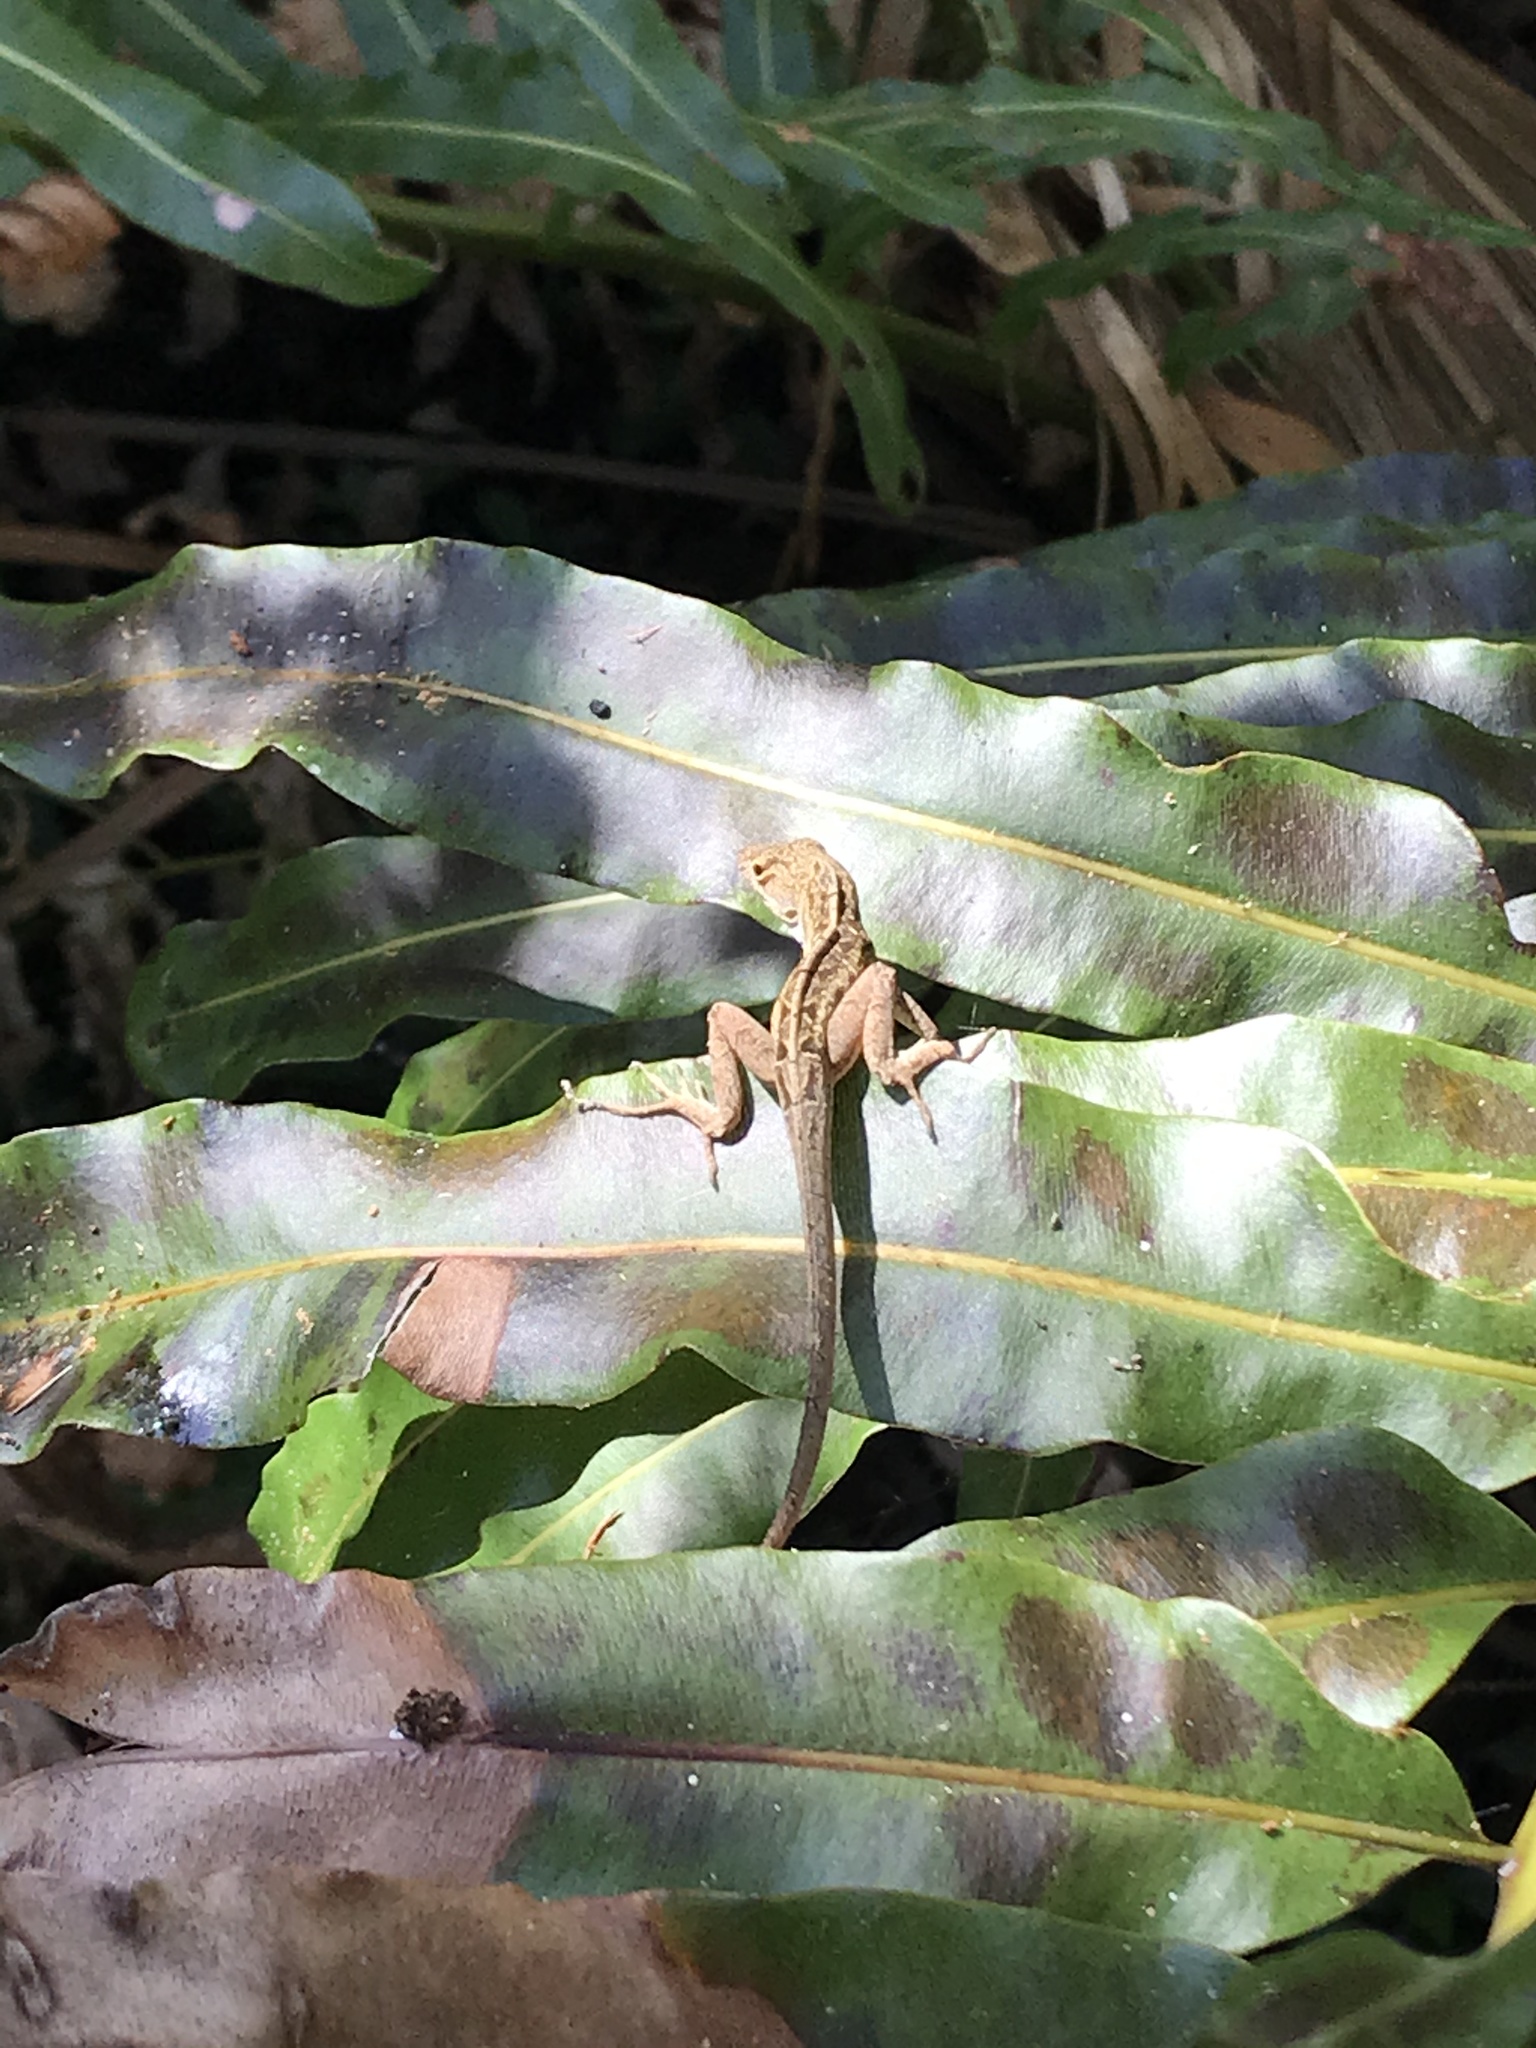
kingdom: Animalia
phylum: Chordata
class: Squamata
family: Dactyloidae
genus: Anolis
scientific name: Anolis sagrei
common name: Brown anole
